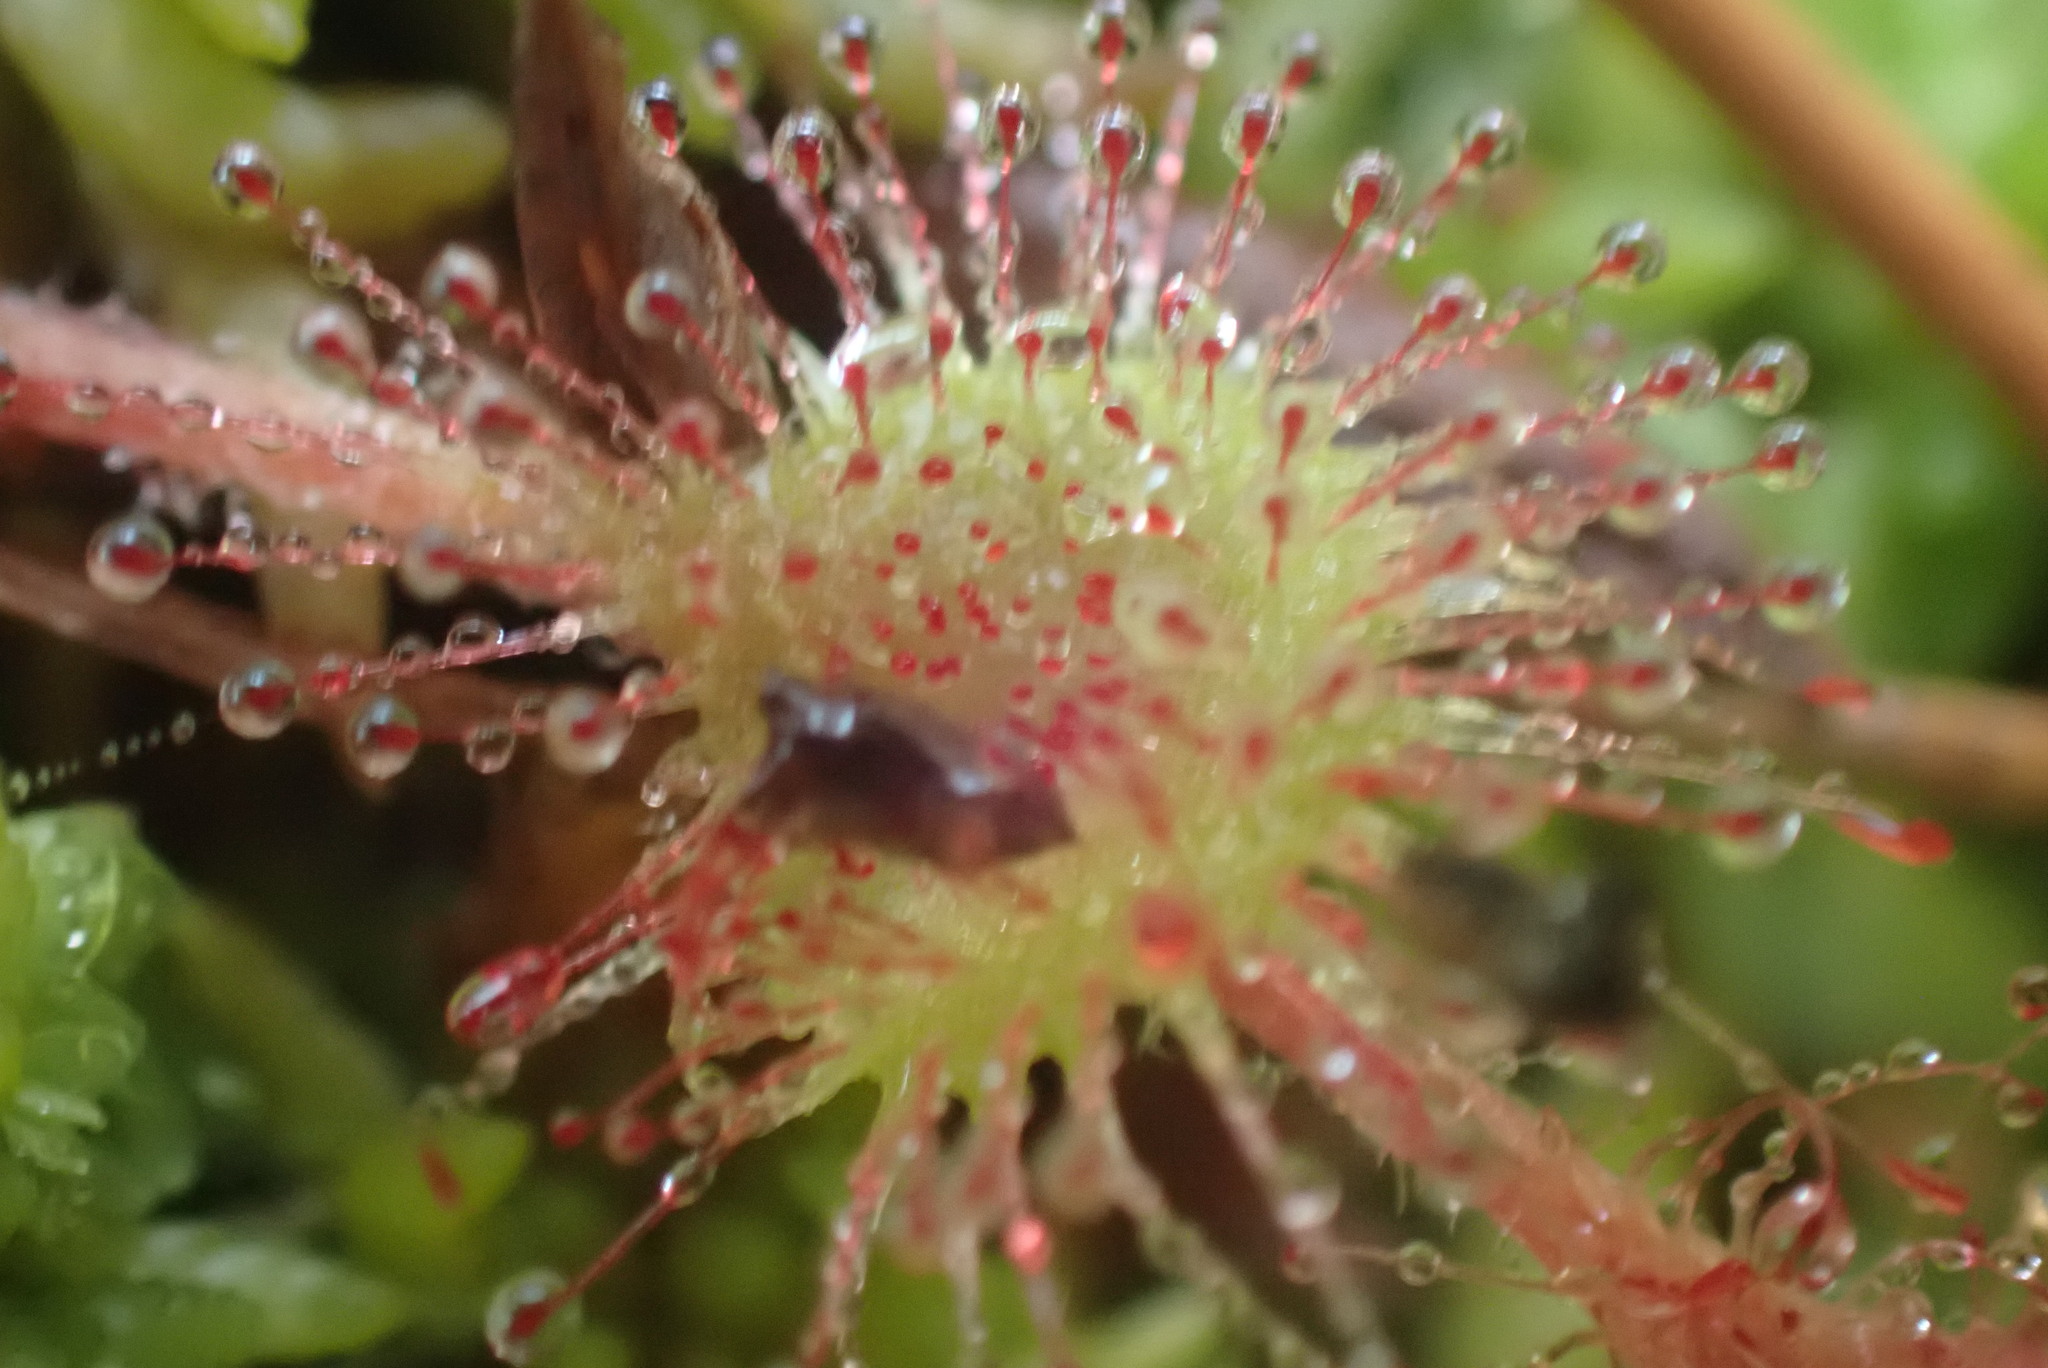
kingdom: Plantae
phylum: Tracheophyta
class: Magnoliopsida
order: Caryophyllales
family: Droseraceae
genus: Drosera
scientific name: Drosera rotundifolia
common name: Round-leaved sundew
